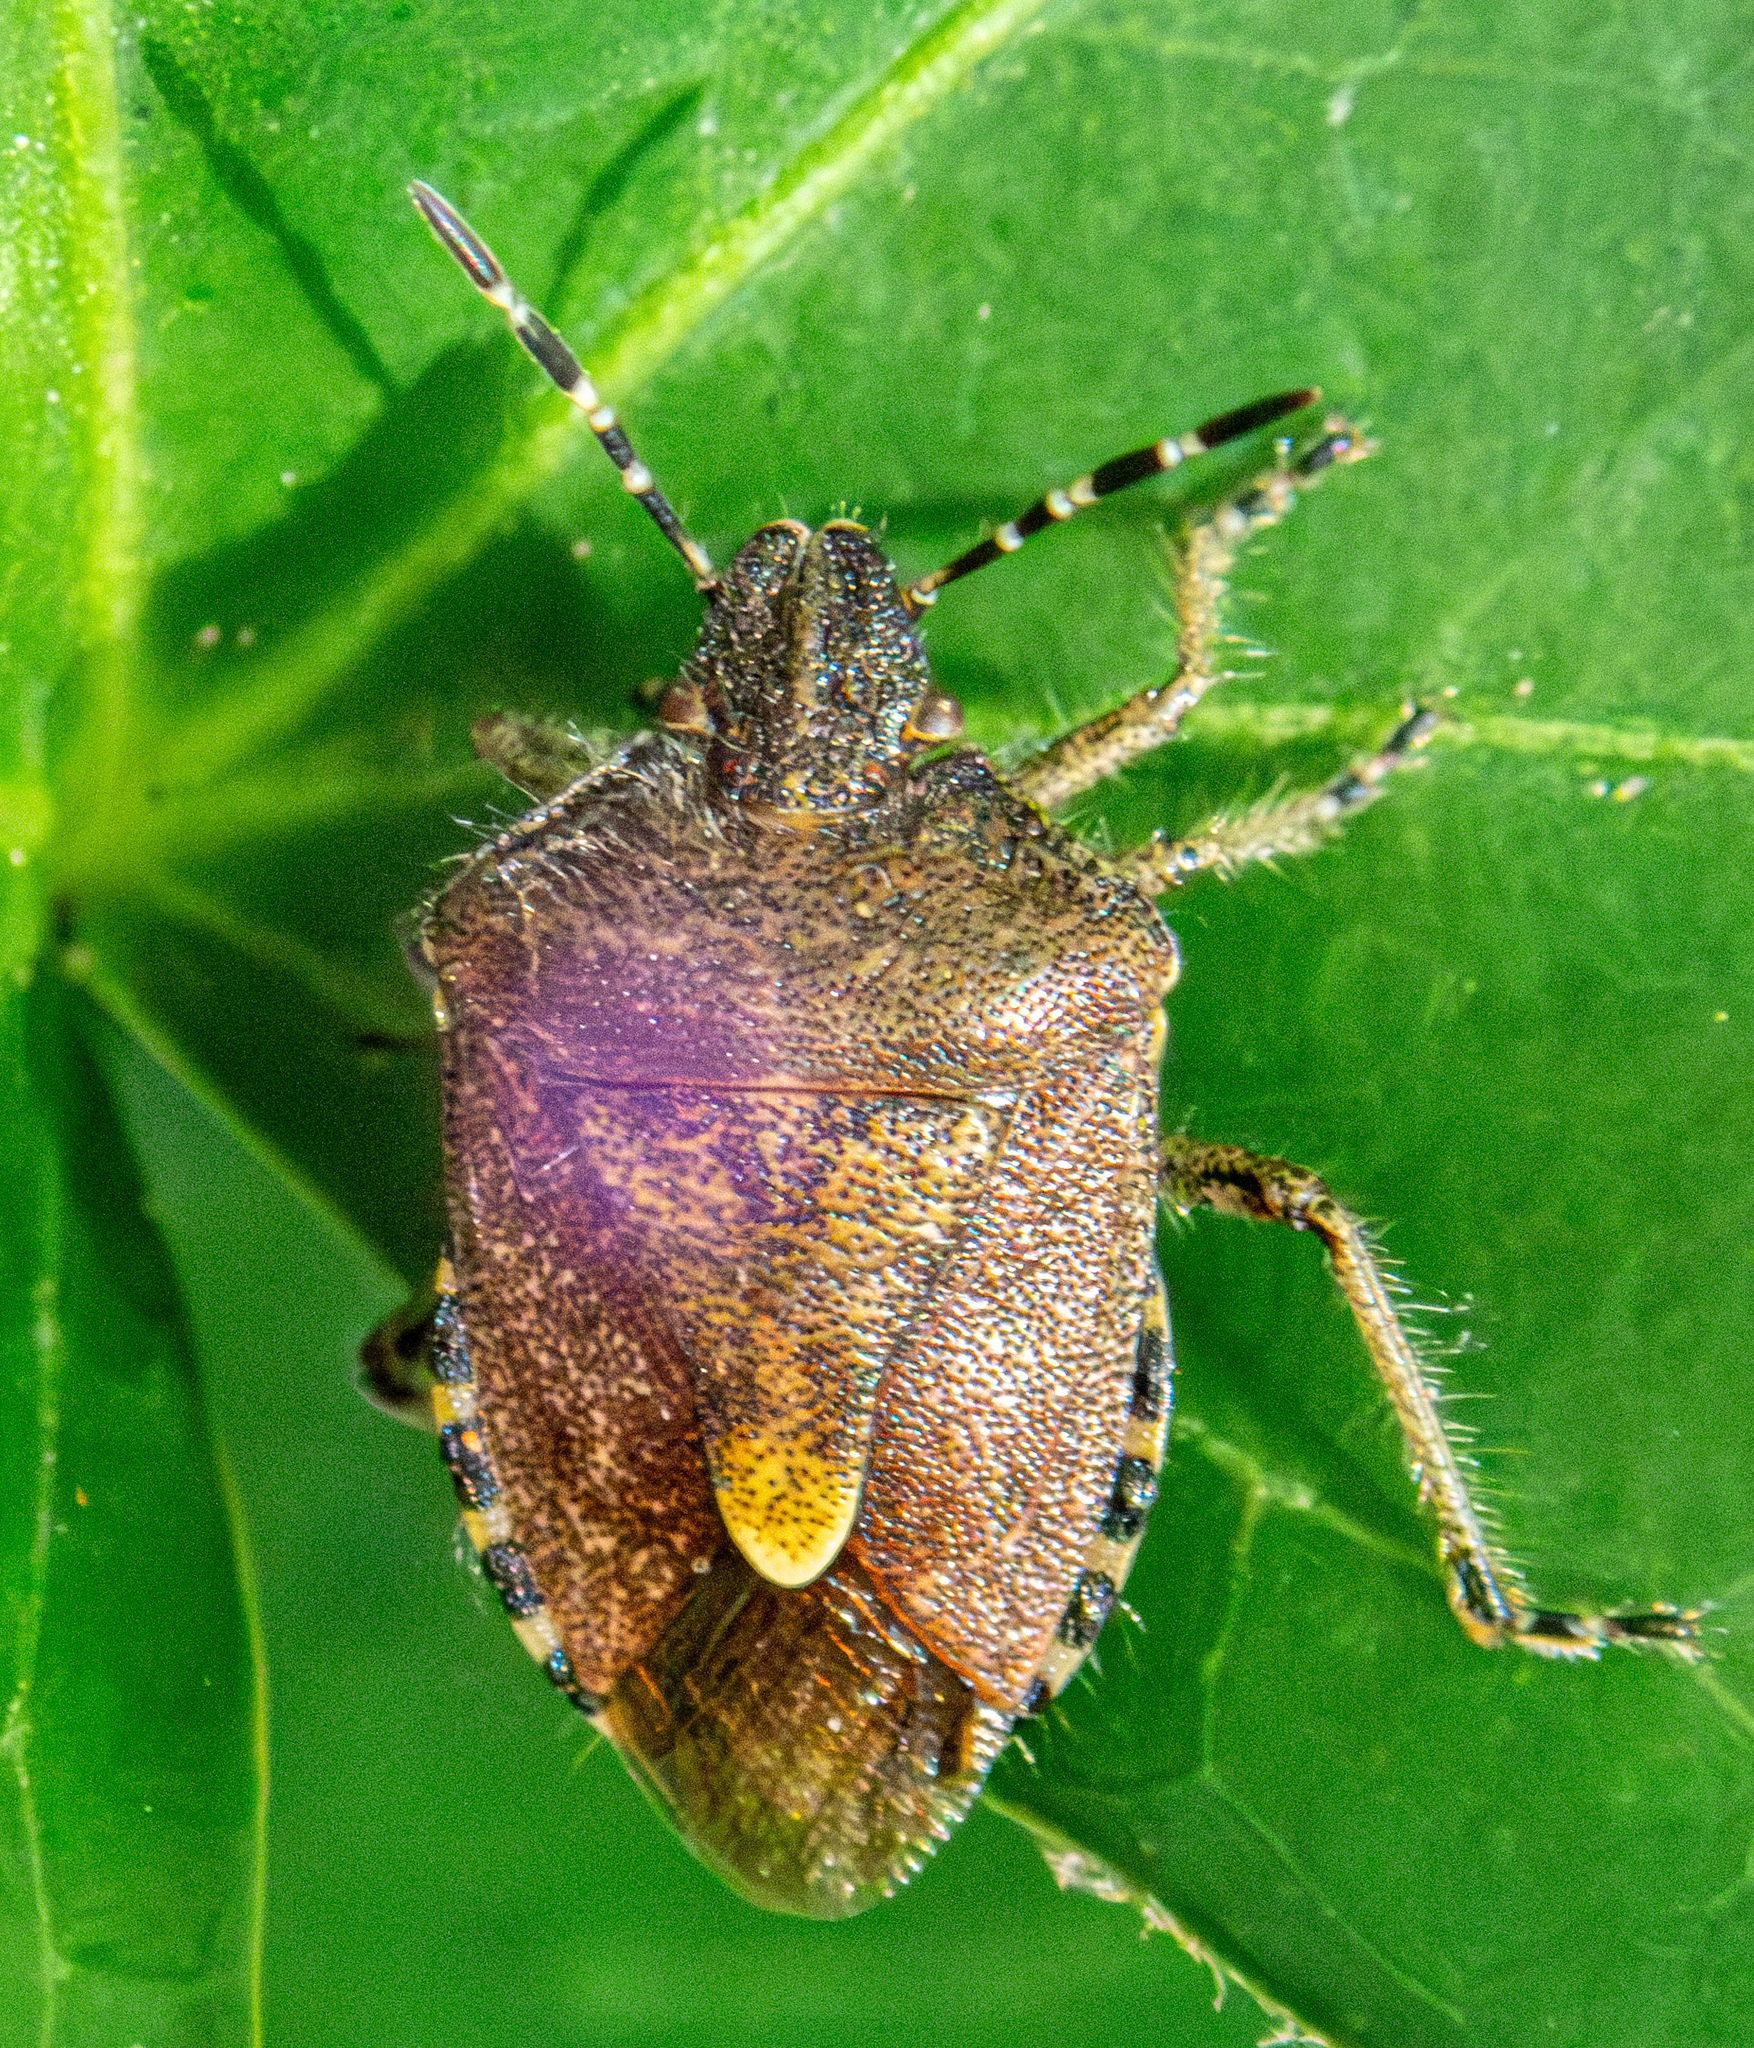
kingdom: Animalia
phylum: Arthropoda
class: Insecta
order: Hemiptera
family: Pentatomidae
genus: Dolycoris
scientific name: Dolycoris baccarum
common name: Sloe bug
